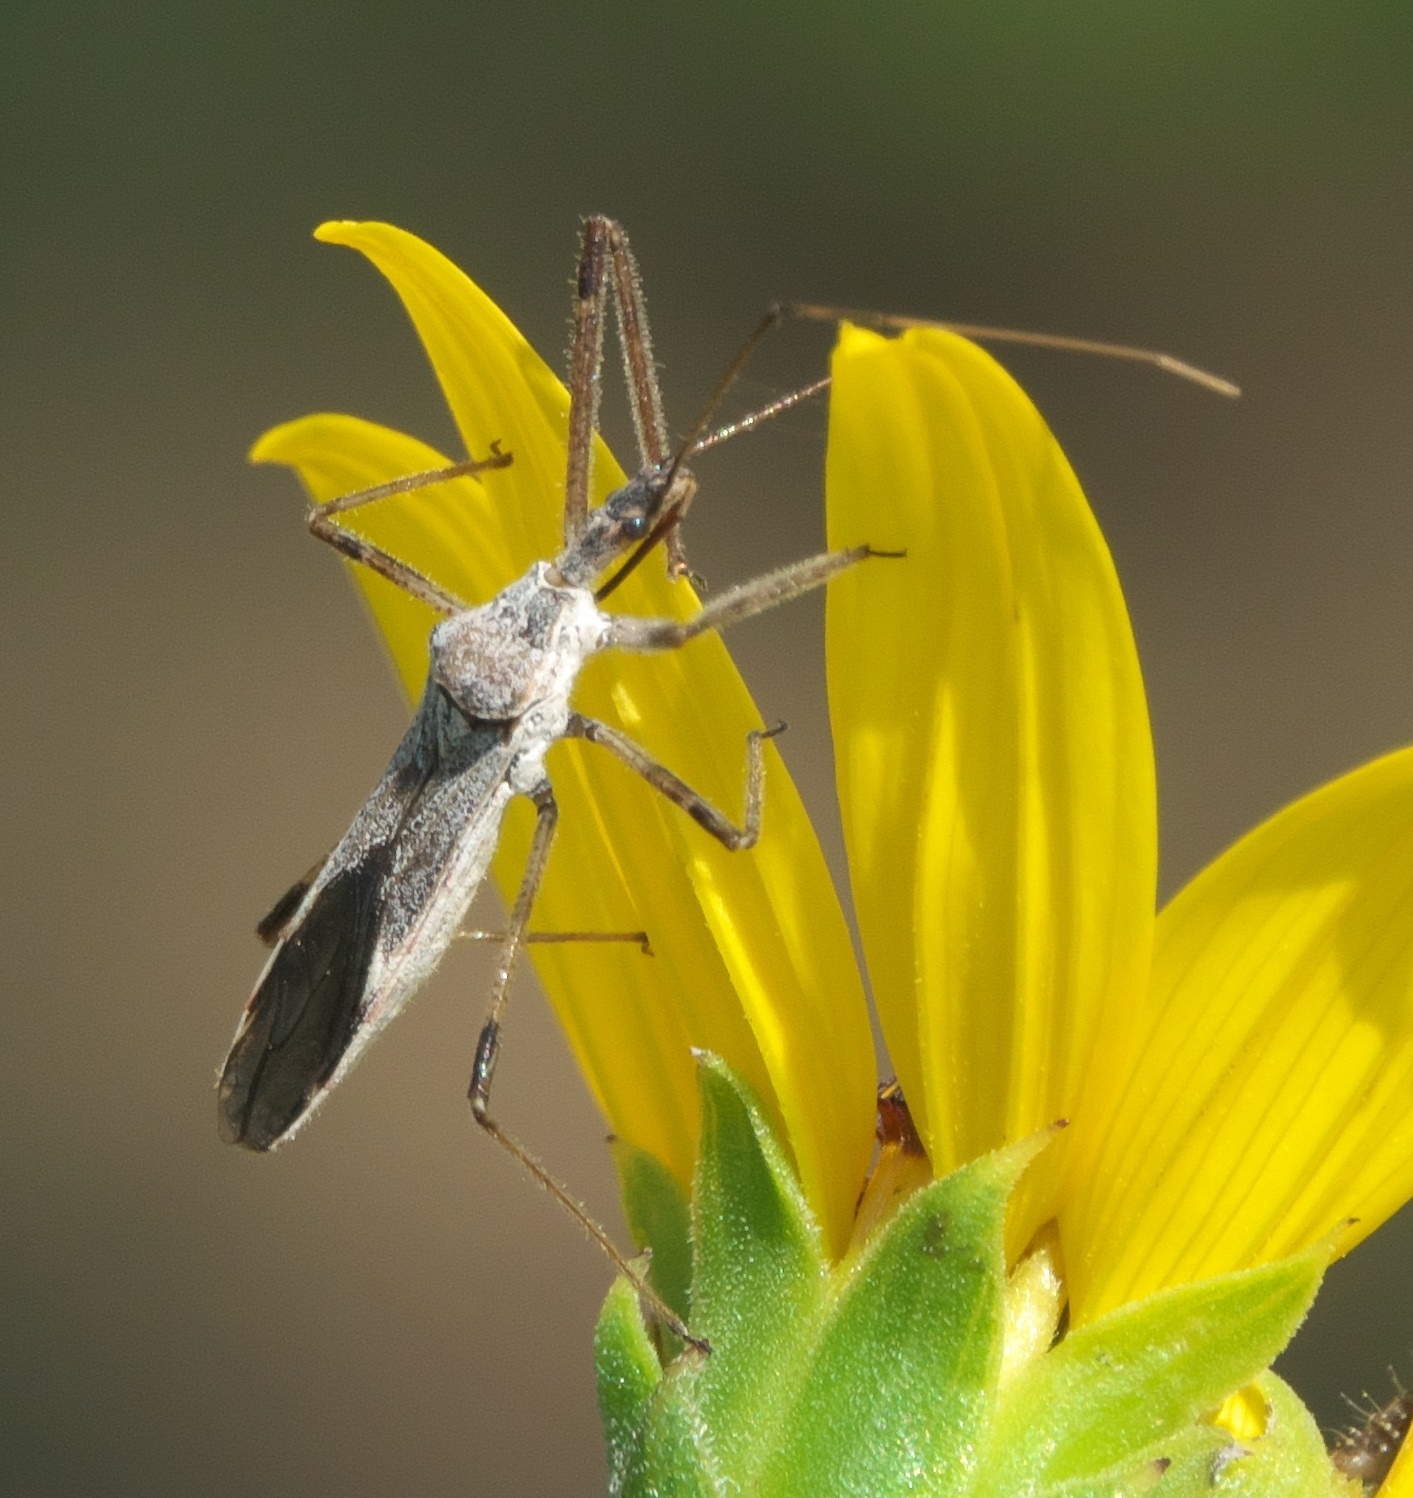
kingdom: Animalia
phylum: Arthropoda
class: Insecta
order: Hemiptera
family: Reduviidae
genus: Zelus
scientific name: Zelus tetracanthus
